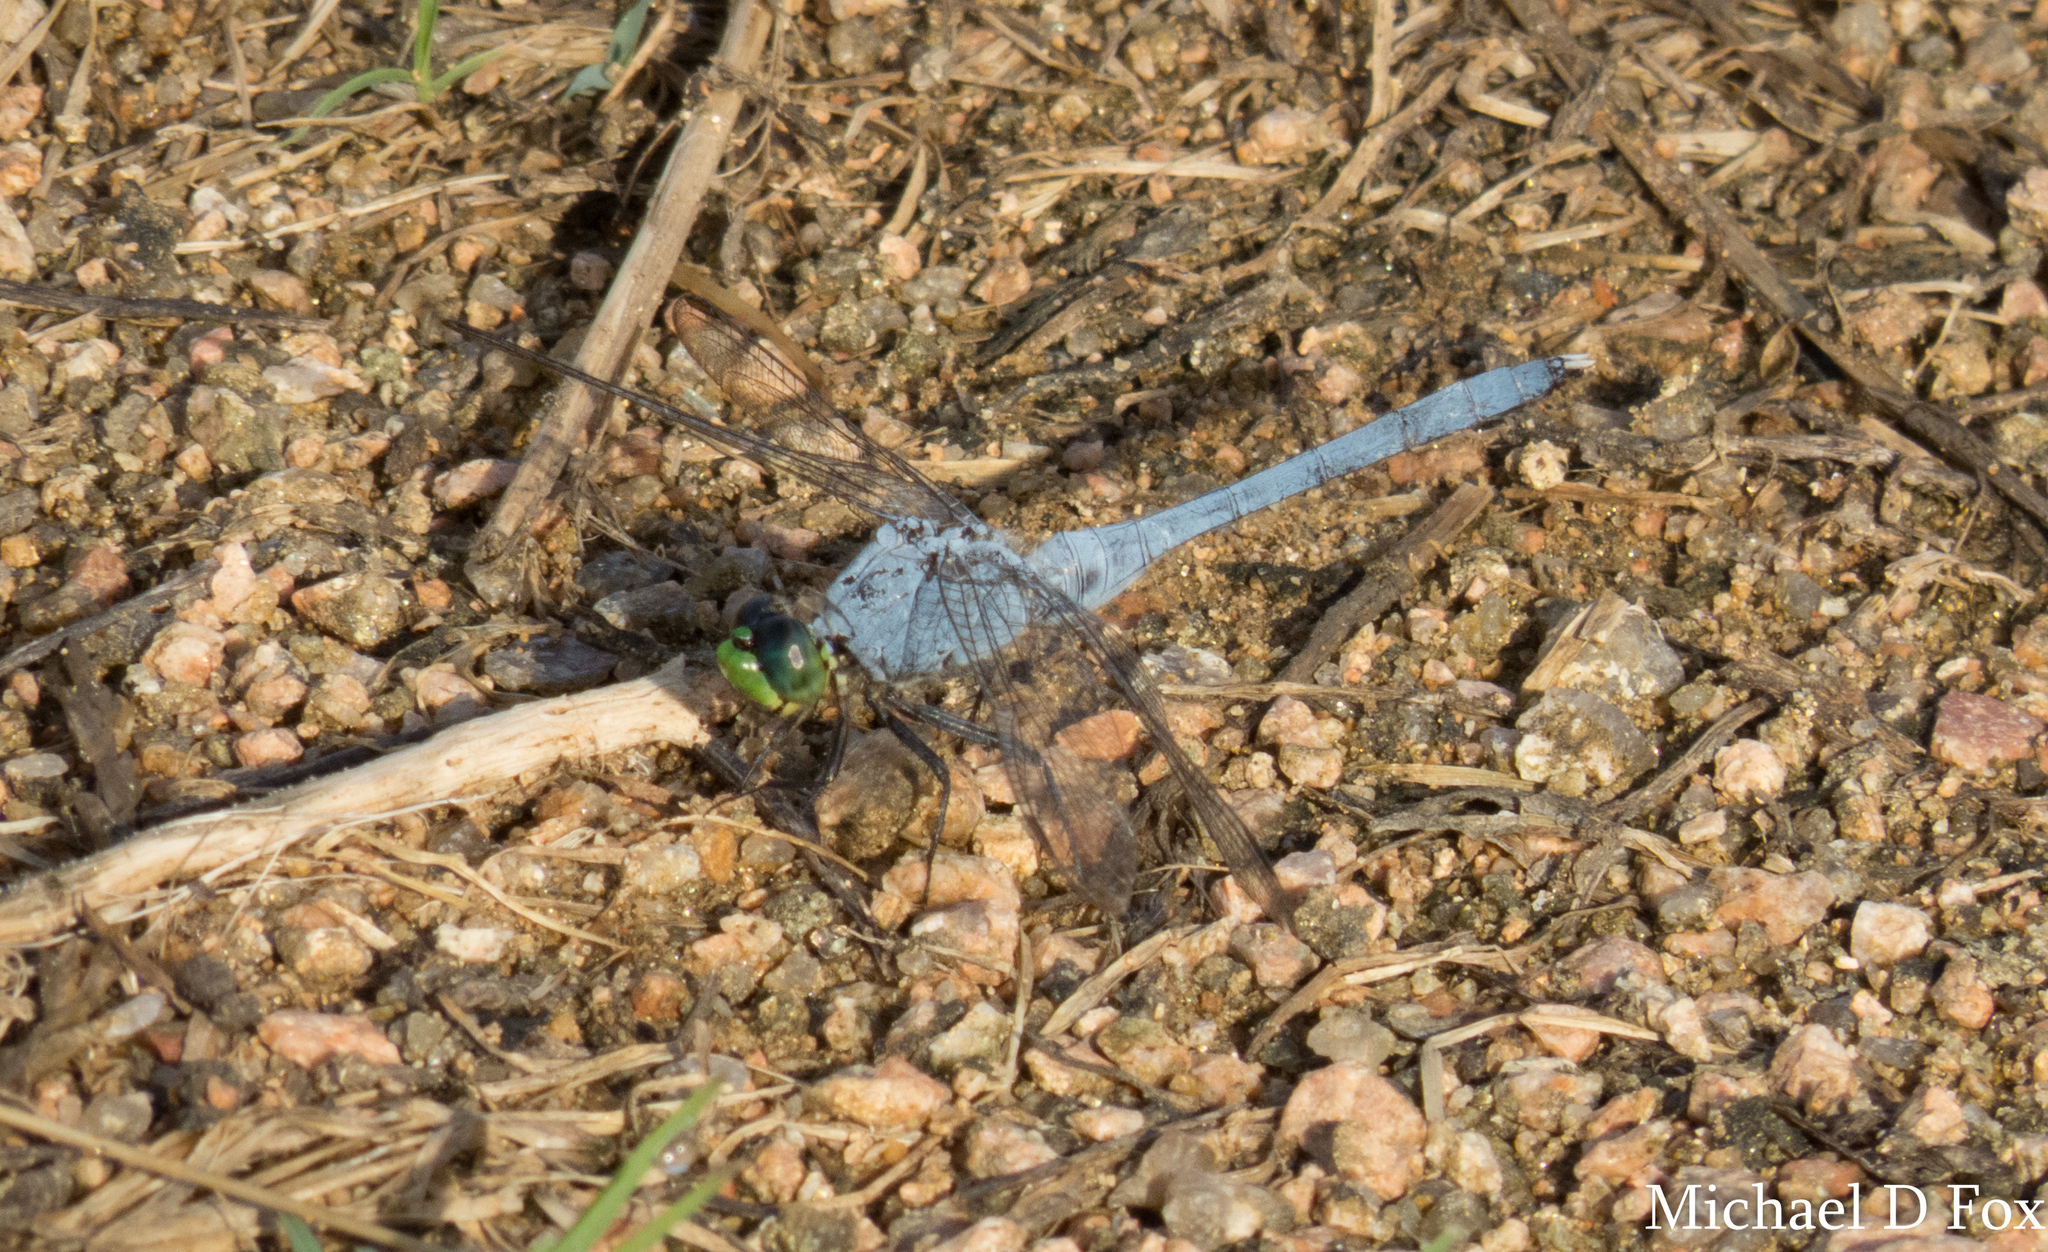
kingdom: Animalia
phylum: Arthropoda
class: Insecta
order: Odonata
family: Libellulidae
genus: Erythemis
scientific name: Erythemis simplicicollis
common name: Eastern pondhawk
